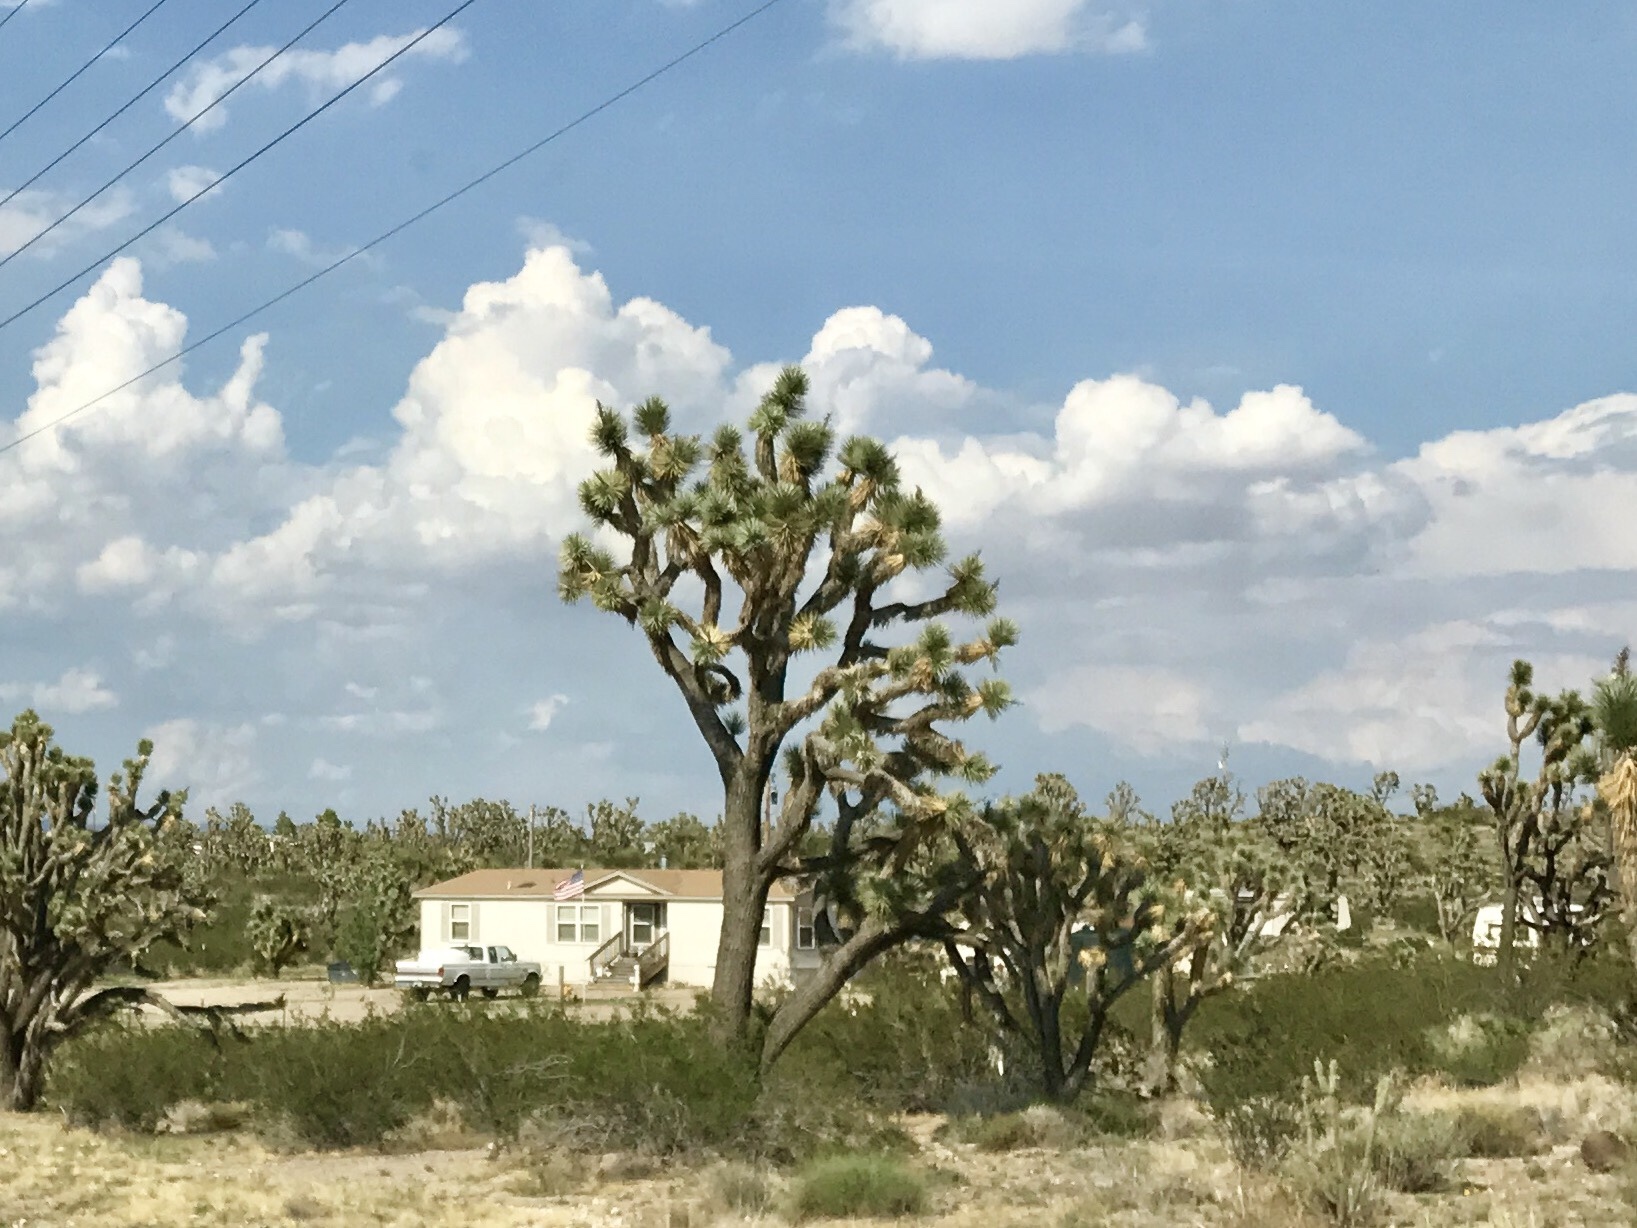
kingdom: Plantae
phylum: Tracheophyta
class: Liliopsida
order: Asparagales
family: Asparagaceae
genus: Yucca
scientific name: Yucca brevifolia
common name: Joshua tree
